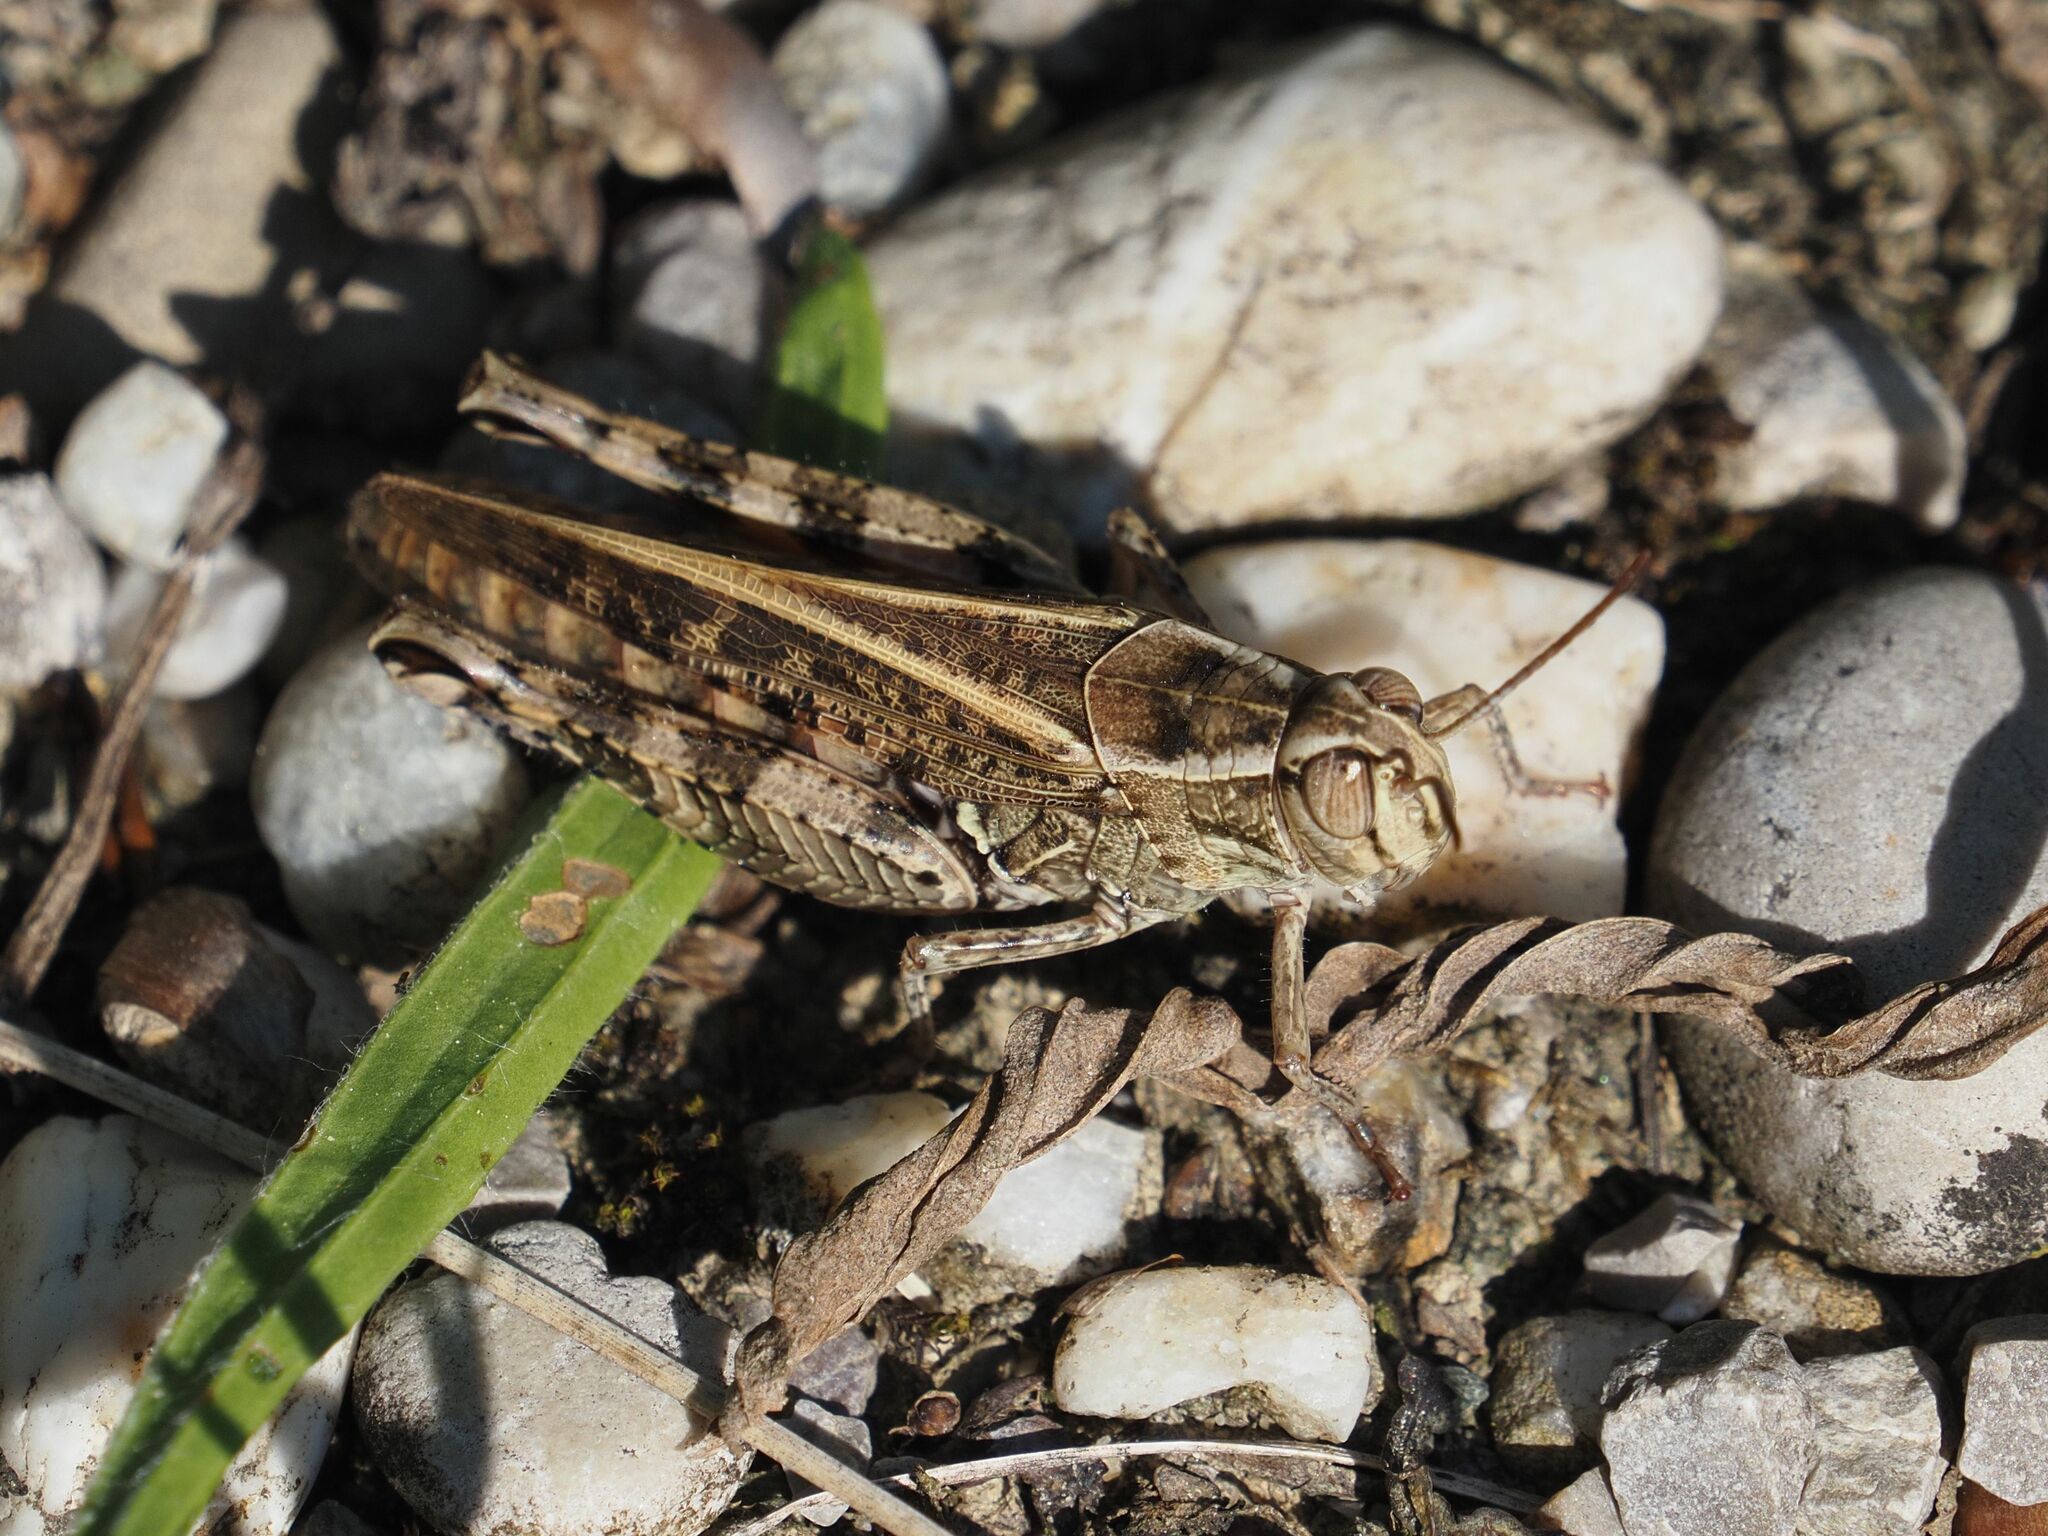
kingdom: Animalia
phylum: Arthropoda
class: Insecta
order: Orthoptera
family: Acrididae
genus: Calliptamus
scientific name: Calliptamus italicus
